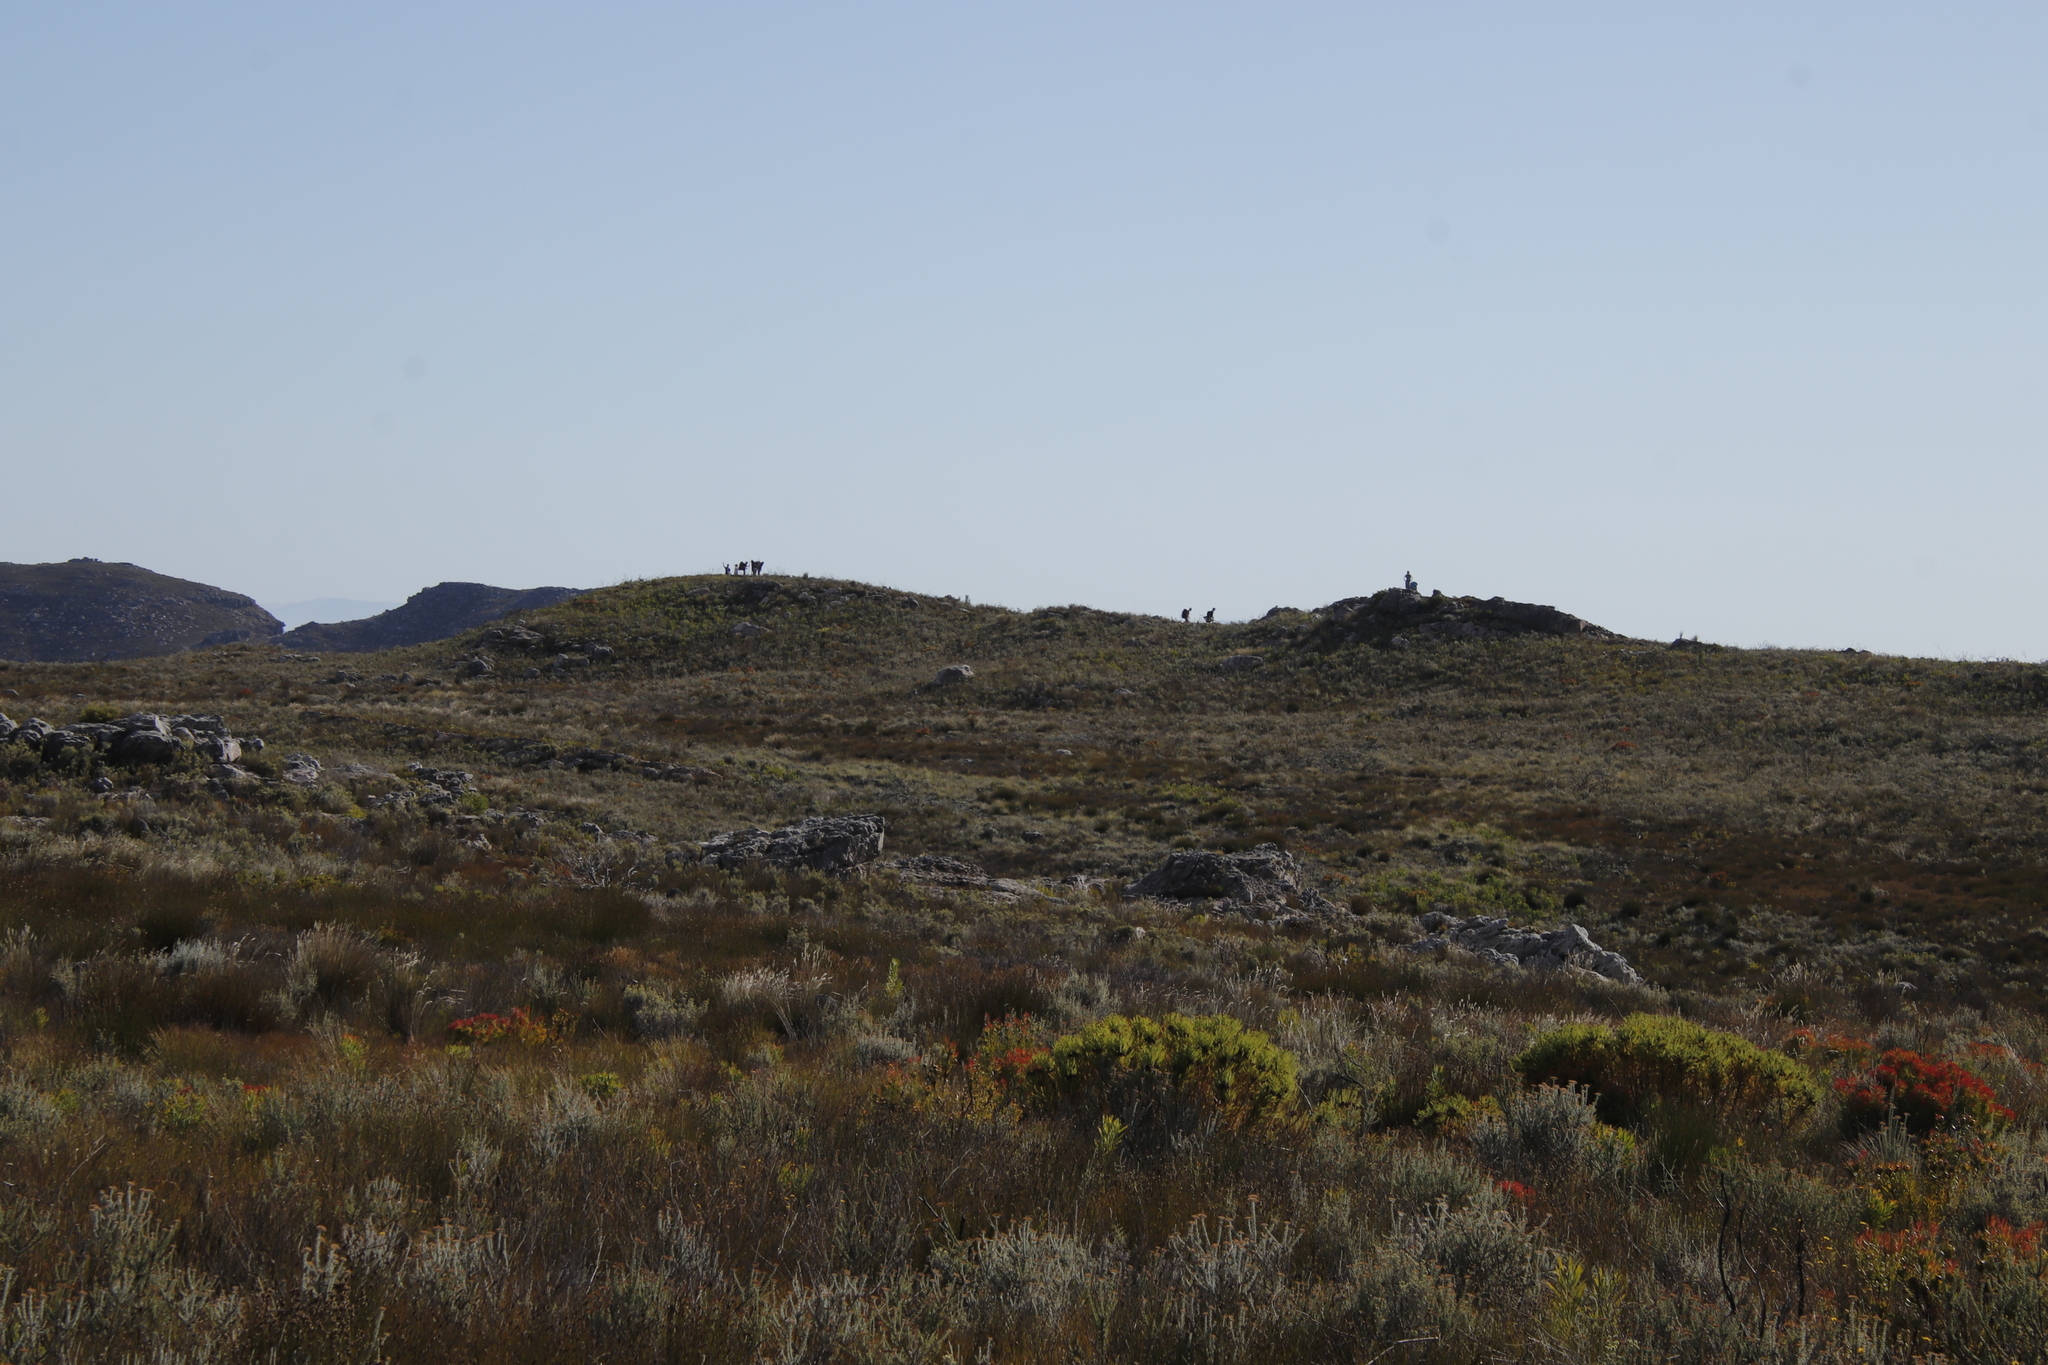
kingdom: Plantae
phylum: Tracheophyta
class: Magnoliopsida
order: Proteales
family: Proteaceae
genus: Leucadendron
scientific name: Leucadendron spissifolium
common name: Spear-leaf conebush
